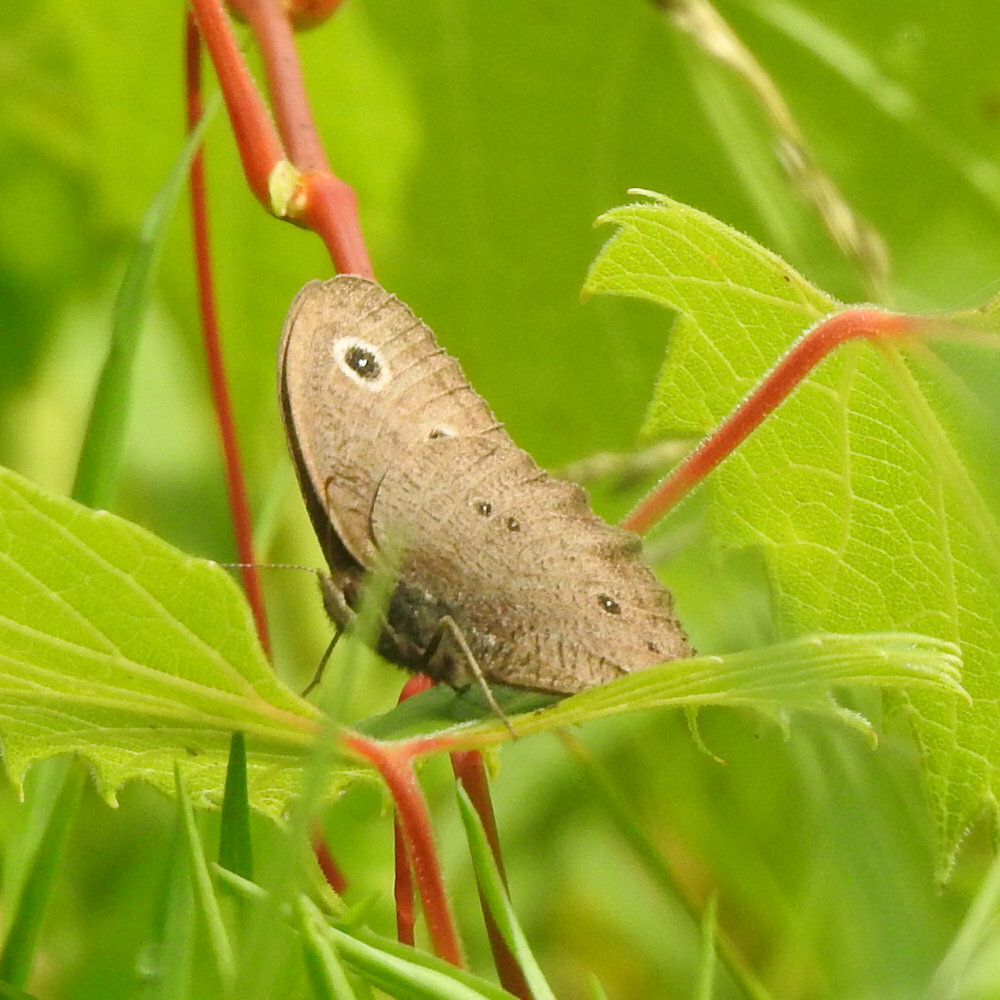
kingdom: Animalia
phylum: Arthropoda
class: Insecta
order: Lepidoptera
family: Nymphalidae
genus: Cercyonis
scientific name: Cercyonis pegala
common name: Common wood-nymph
